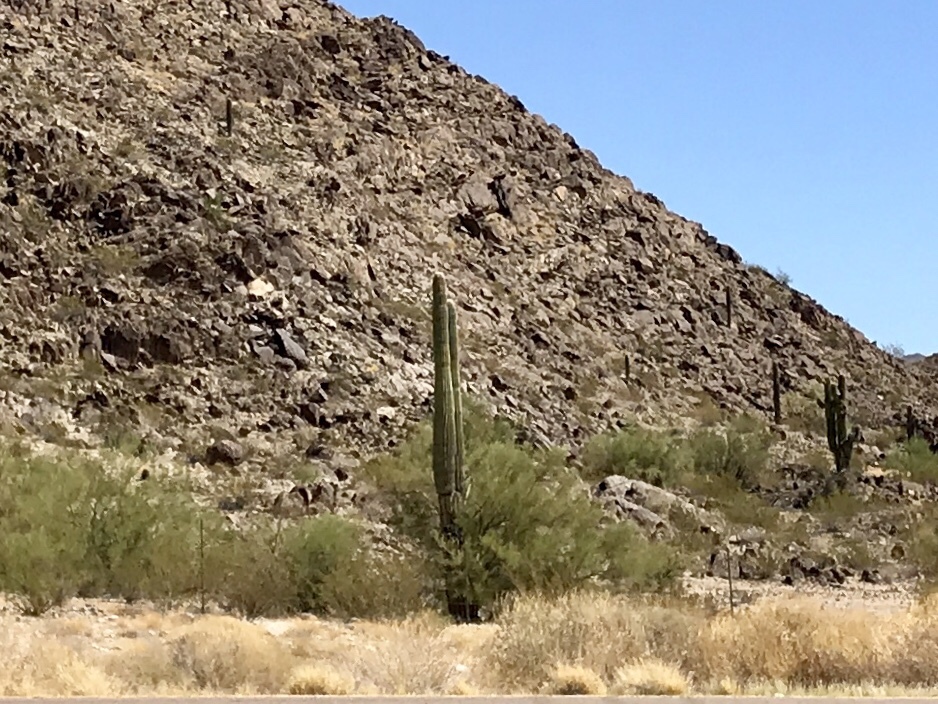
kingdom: Plantae
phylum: Tracheophyta
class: Magnoliopsida
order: Caryophyllales
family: Cactaceae
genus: Carnegiea
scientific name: Carnegiea gigantea
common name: Saguaro
